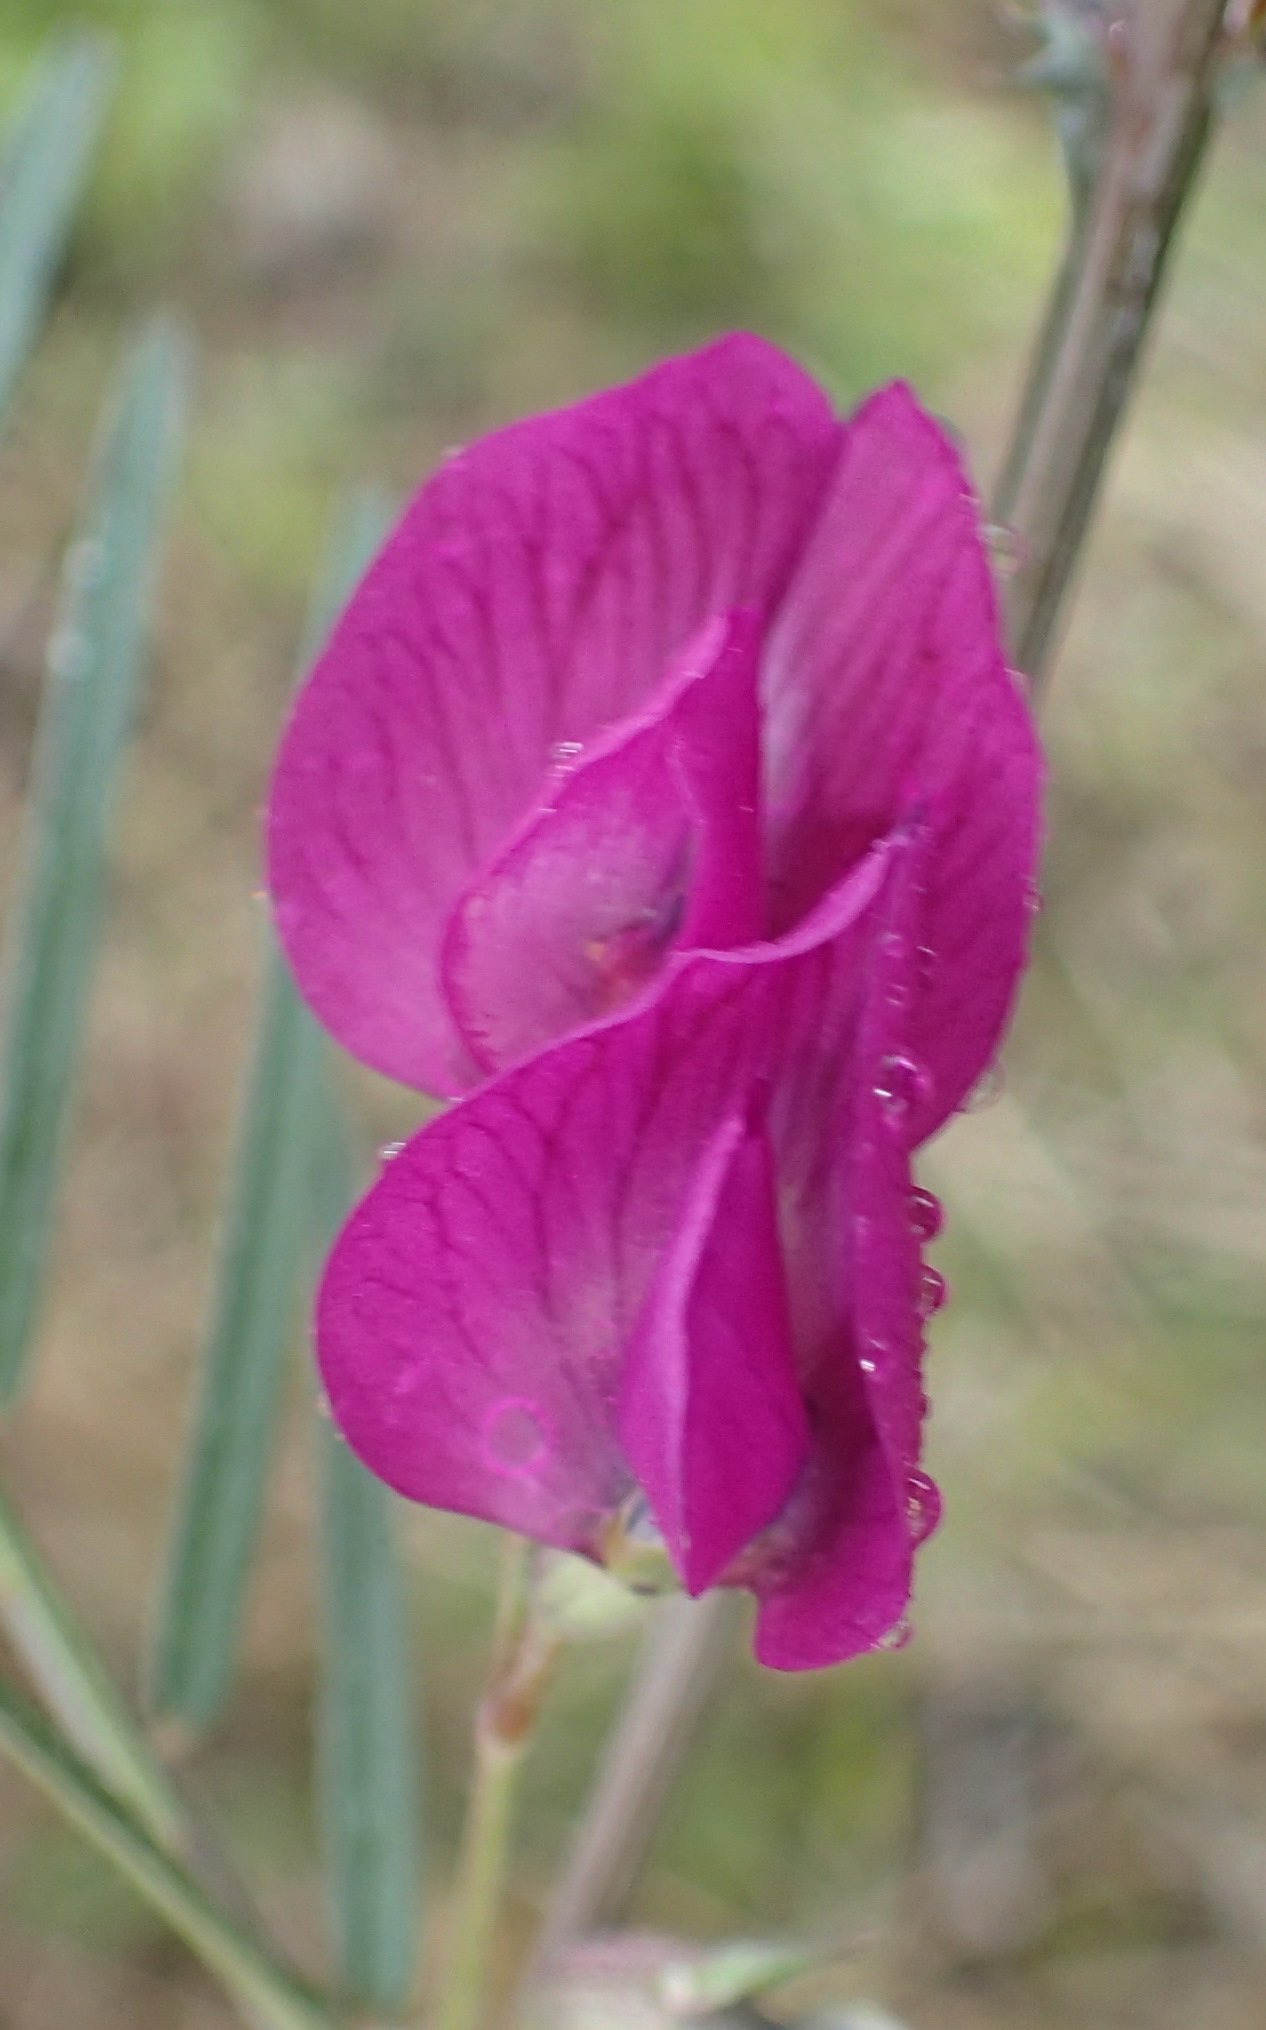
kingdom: Plantae
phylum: Tracheophyta
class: Magnoliopsida
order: Fabales
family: Fabaceae
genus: Vicia
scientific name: Vicia sativa
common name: Garden vetch
